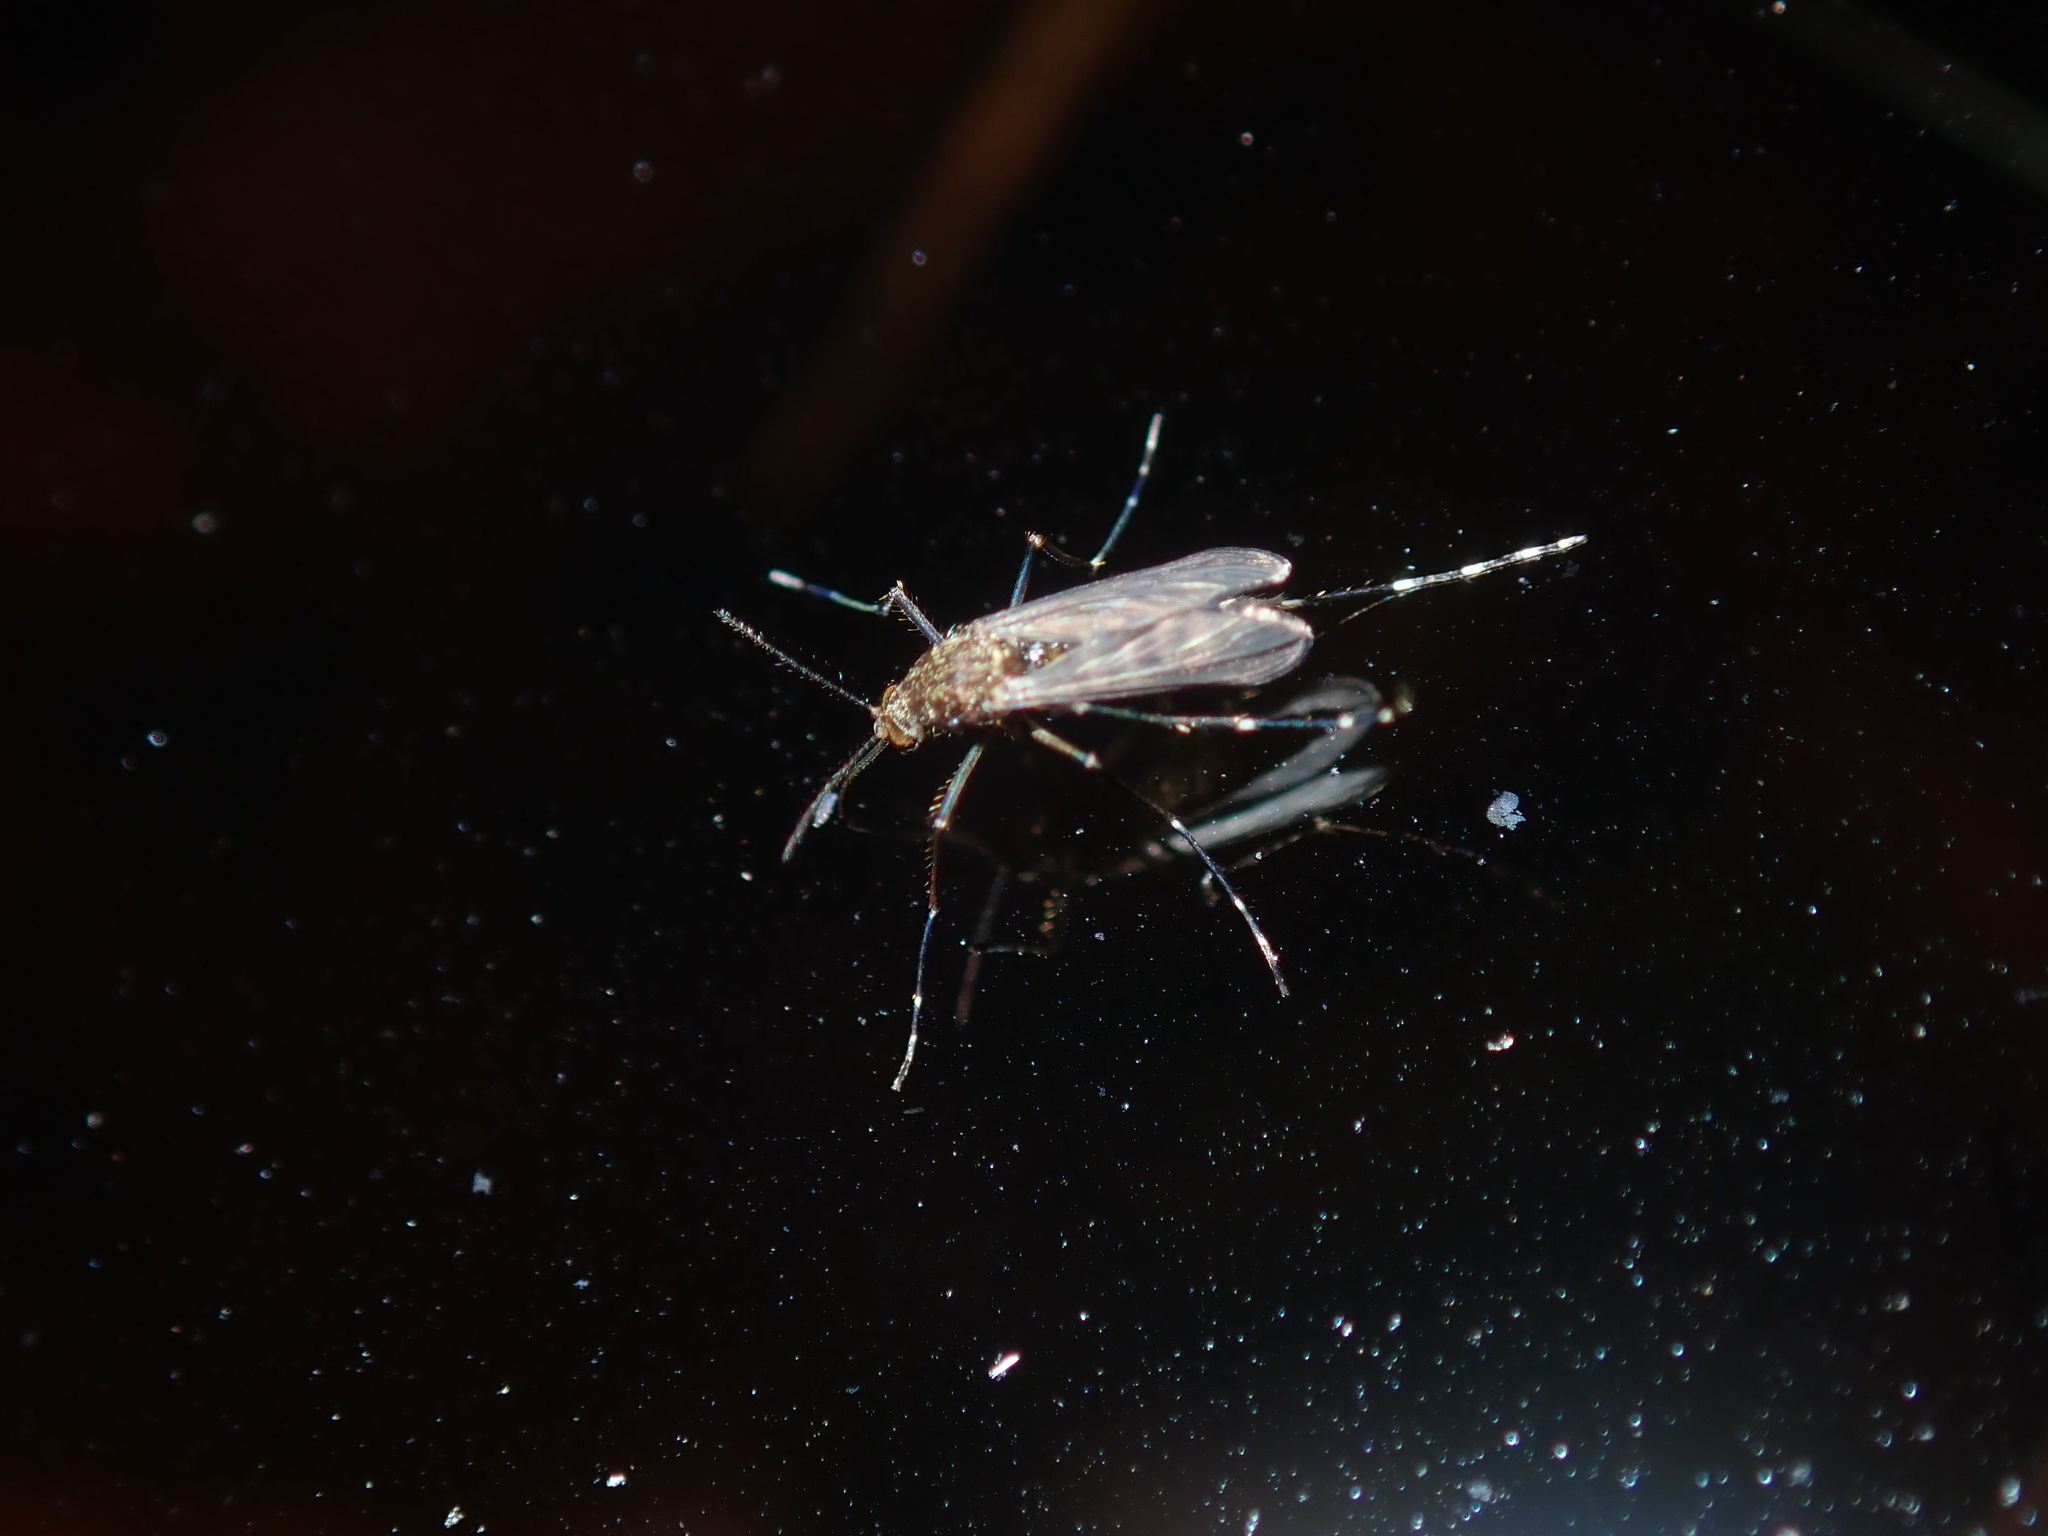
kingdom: Animalia
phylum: Arthropoda
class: Insecta
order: Diptera
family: Culicidae
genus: Aedes
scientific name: Aedes procax
